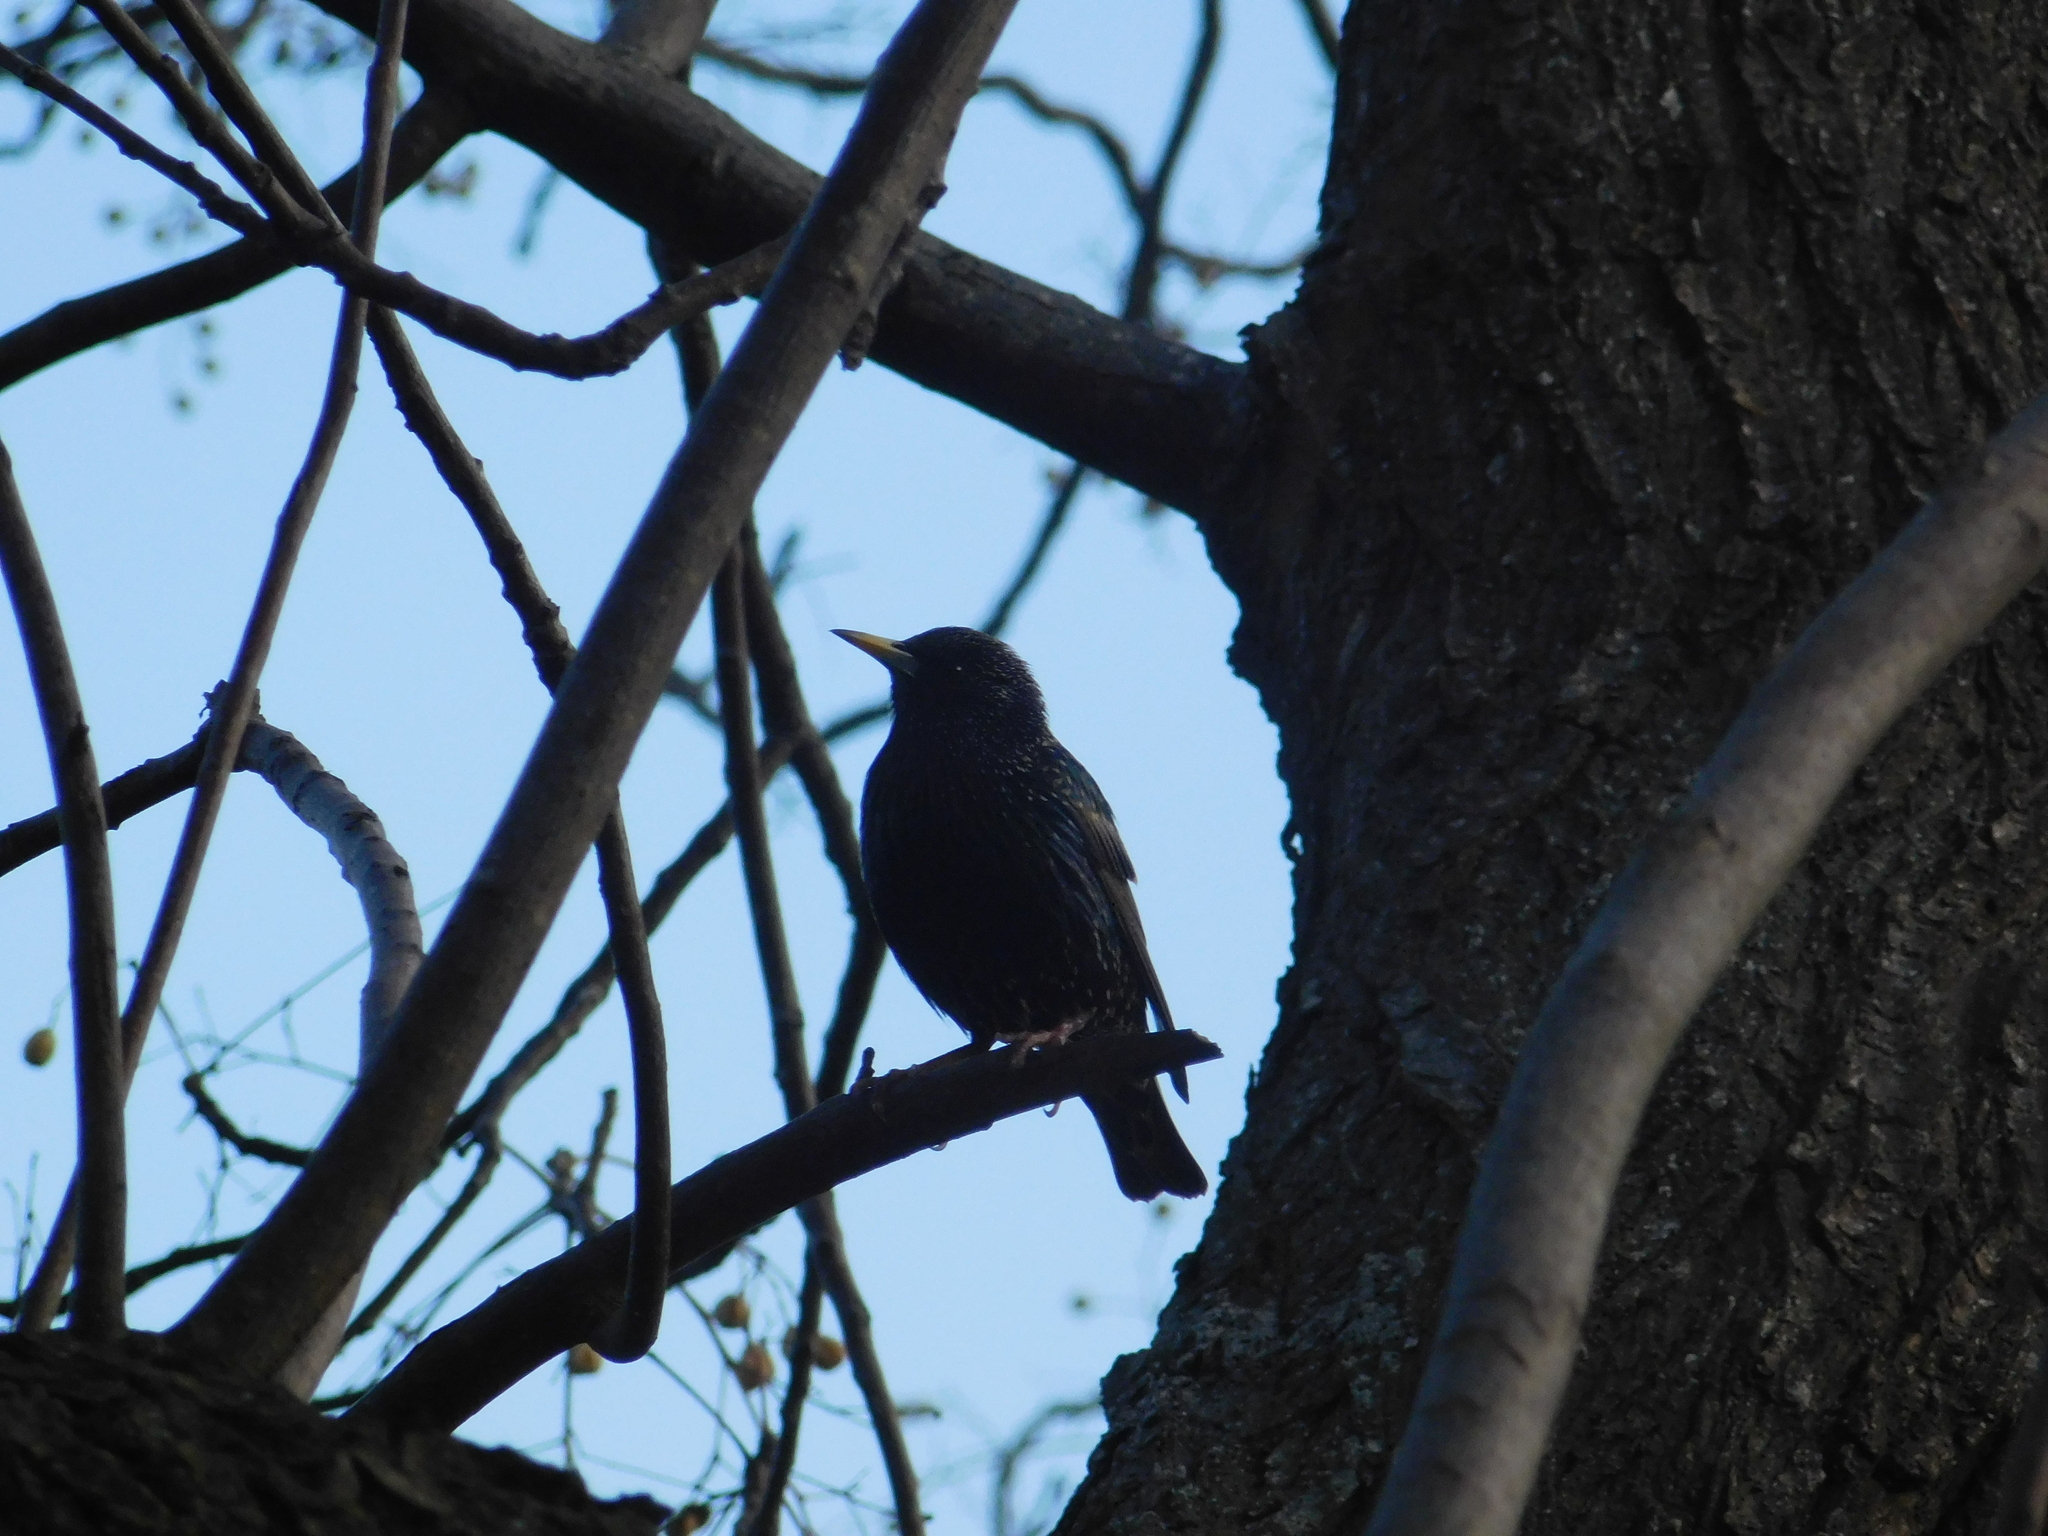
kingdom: Animalia
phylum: Chordata
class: Aves
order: Passeriformes
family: Sturnidae
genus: Sturnus
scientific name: Sturnus vulgaris
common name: Common starling
